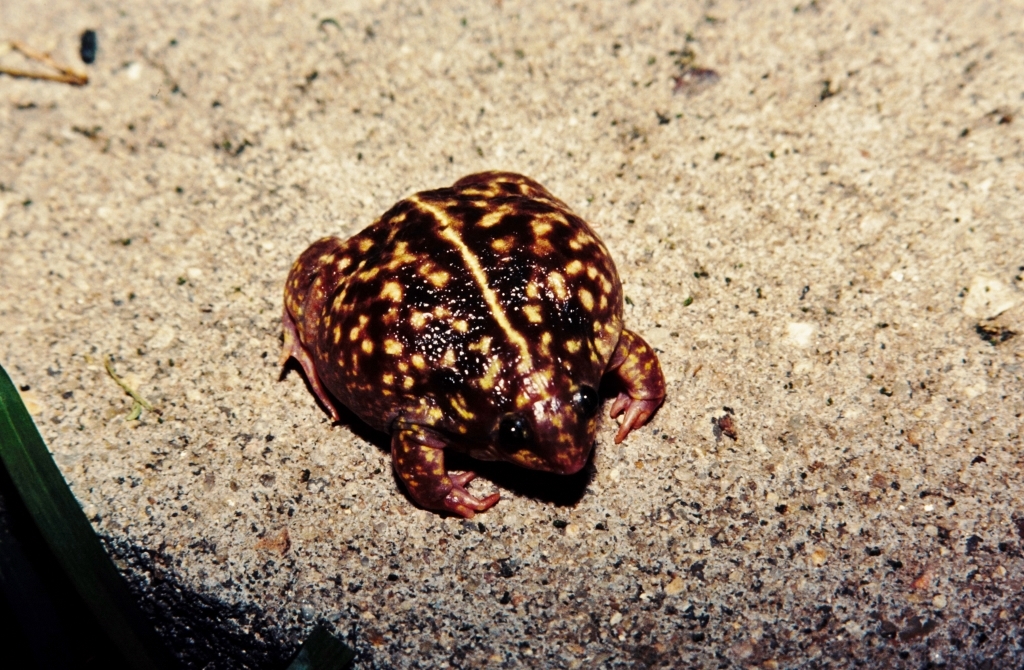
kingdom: Animalia
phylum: Chordata
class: Amphibia
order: Anura
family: Hemisotidae
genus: Hemisus
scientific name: Hemisus marmoratus
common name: Mottled shovel-nosed frog
